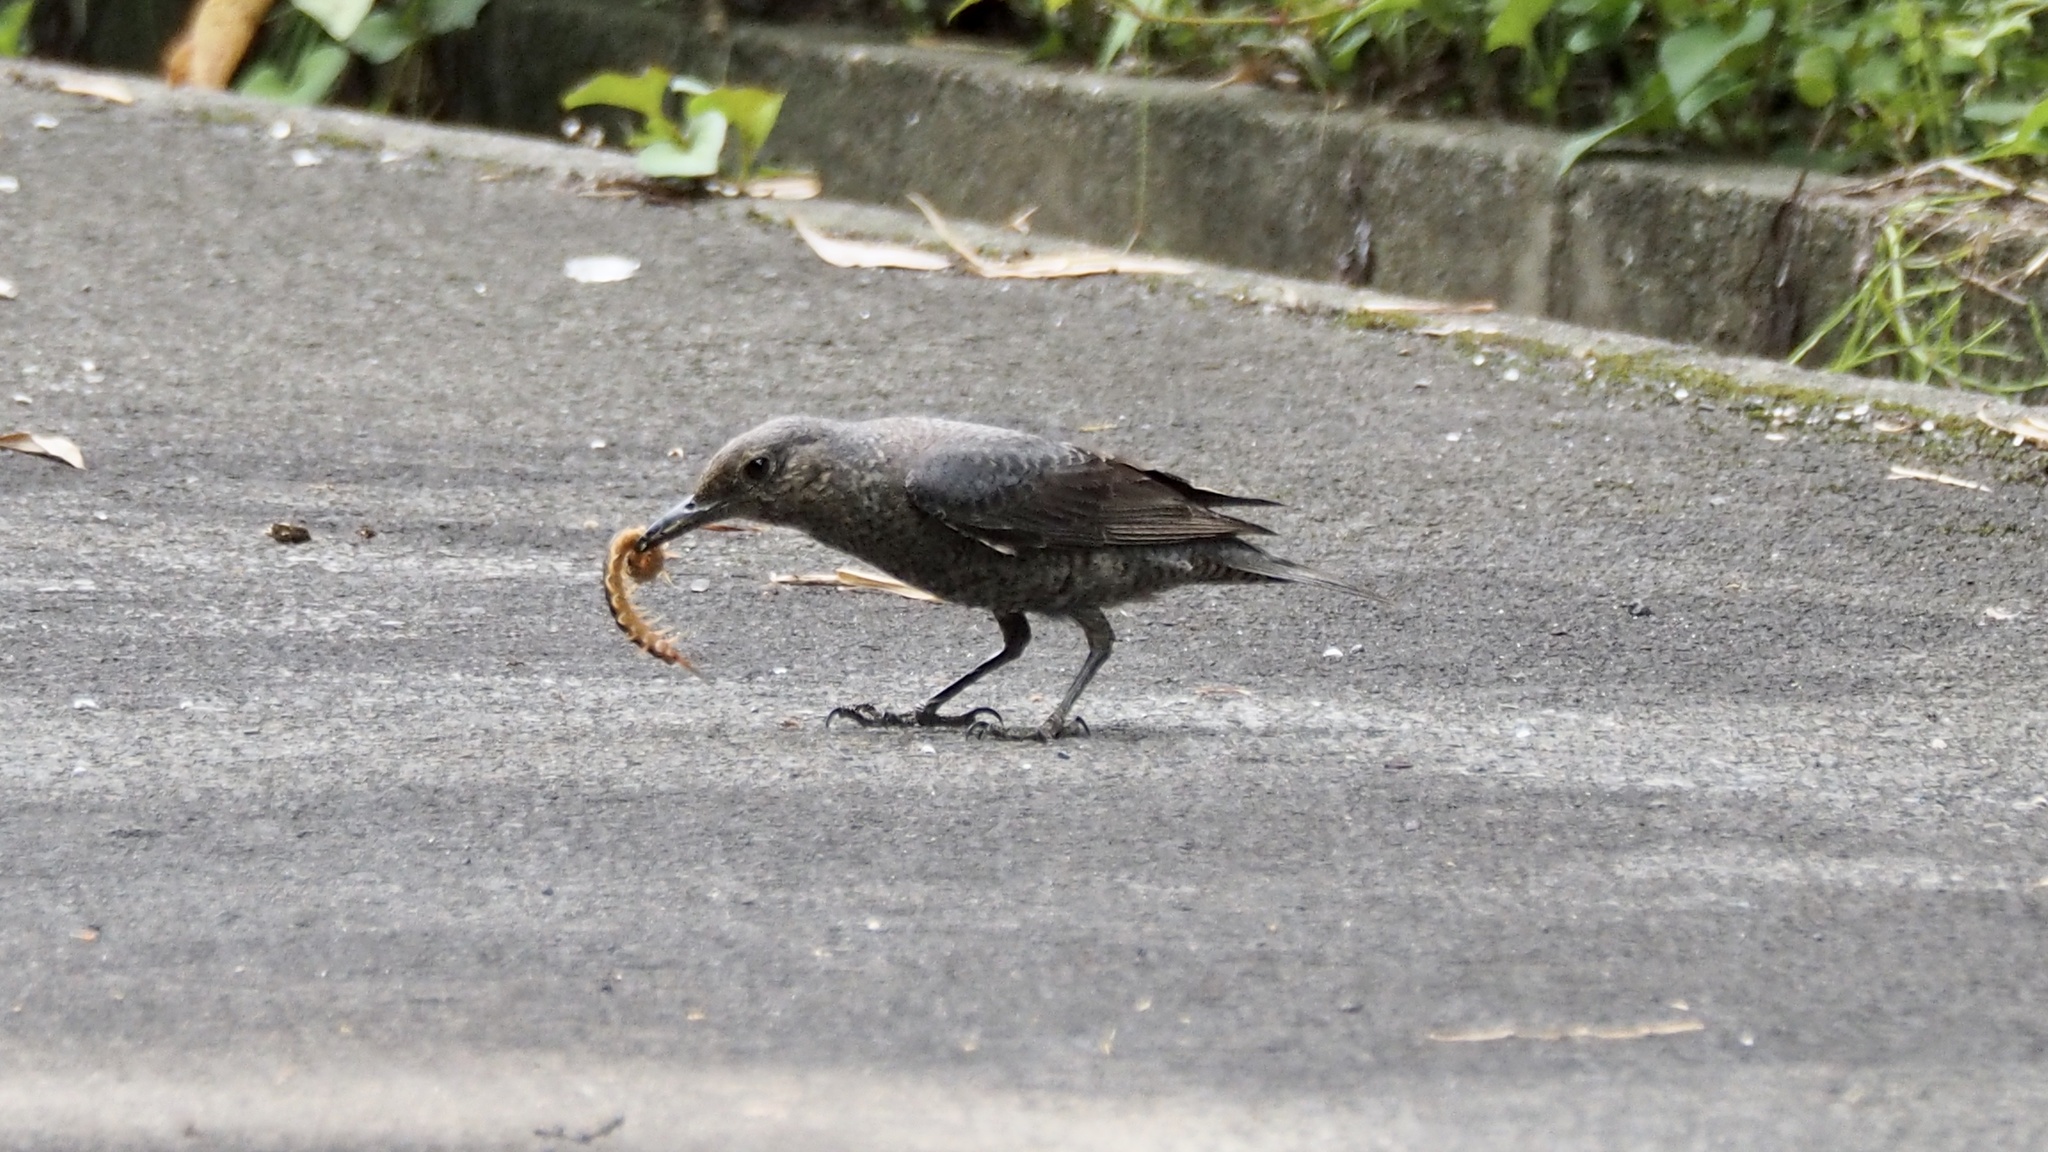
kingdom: Animalia
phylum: Chordata
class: Aves
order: Passeriformes
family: Muscicapidae
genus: Monticola
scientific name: Monticola solitarius
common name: Blue rock thrush
